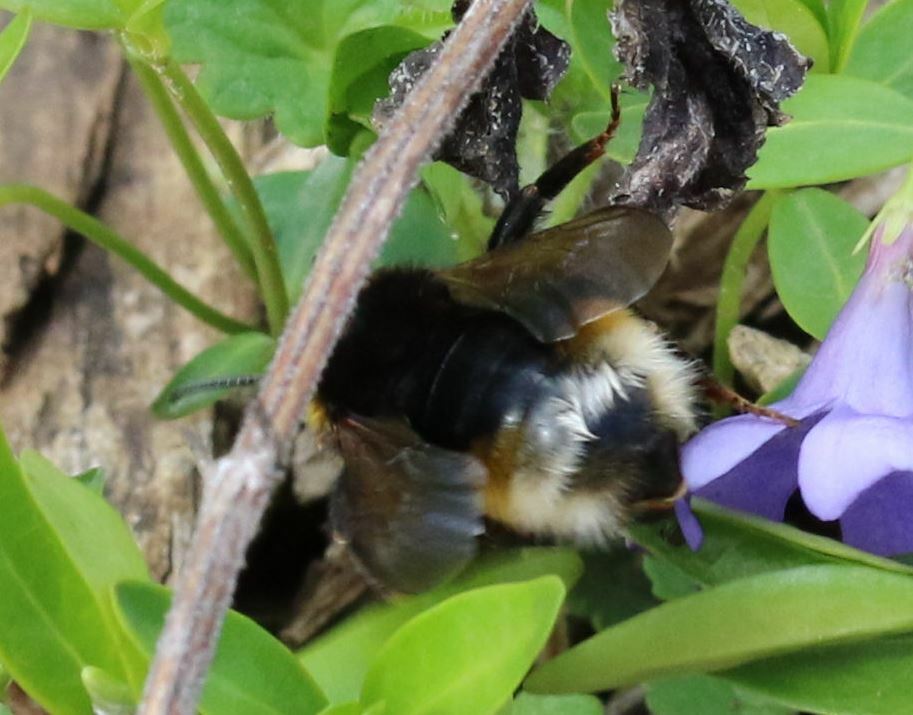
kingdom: Animalia
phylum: Arthropoda
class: Insecta
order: Hymenoptera
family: Apidae
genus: Bombus
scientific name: Bombus vestalis
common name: Vestal cuckoo bee
